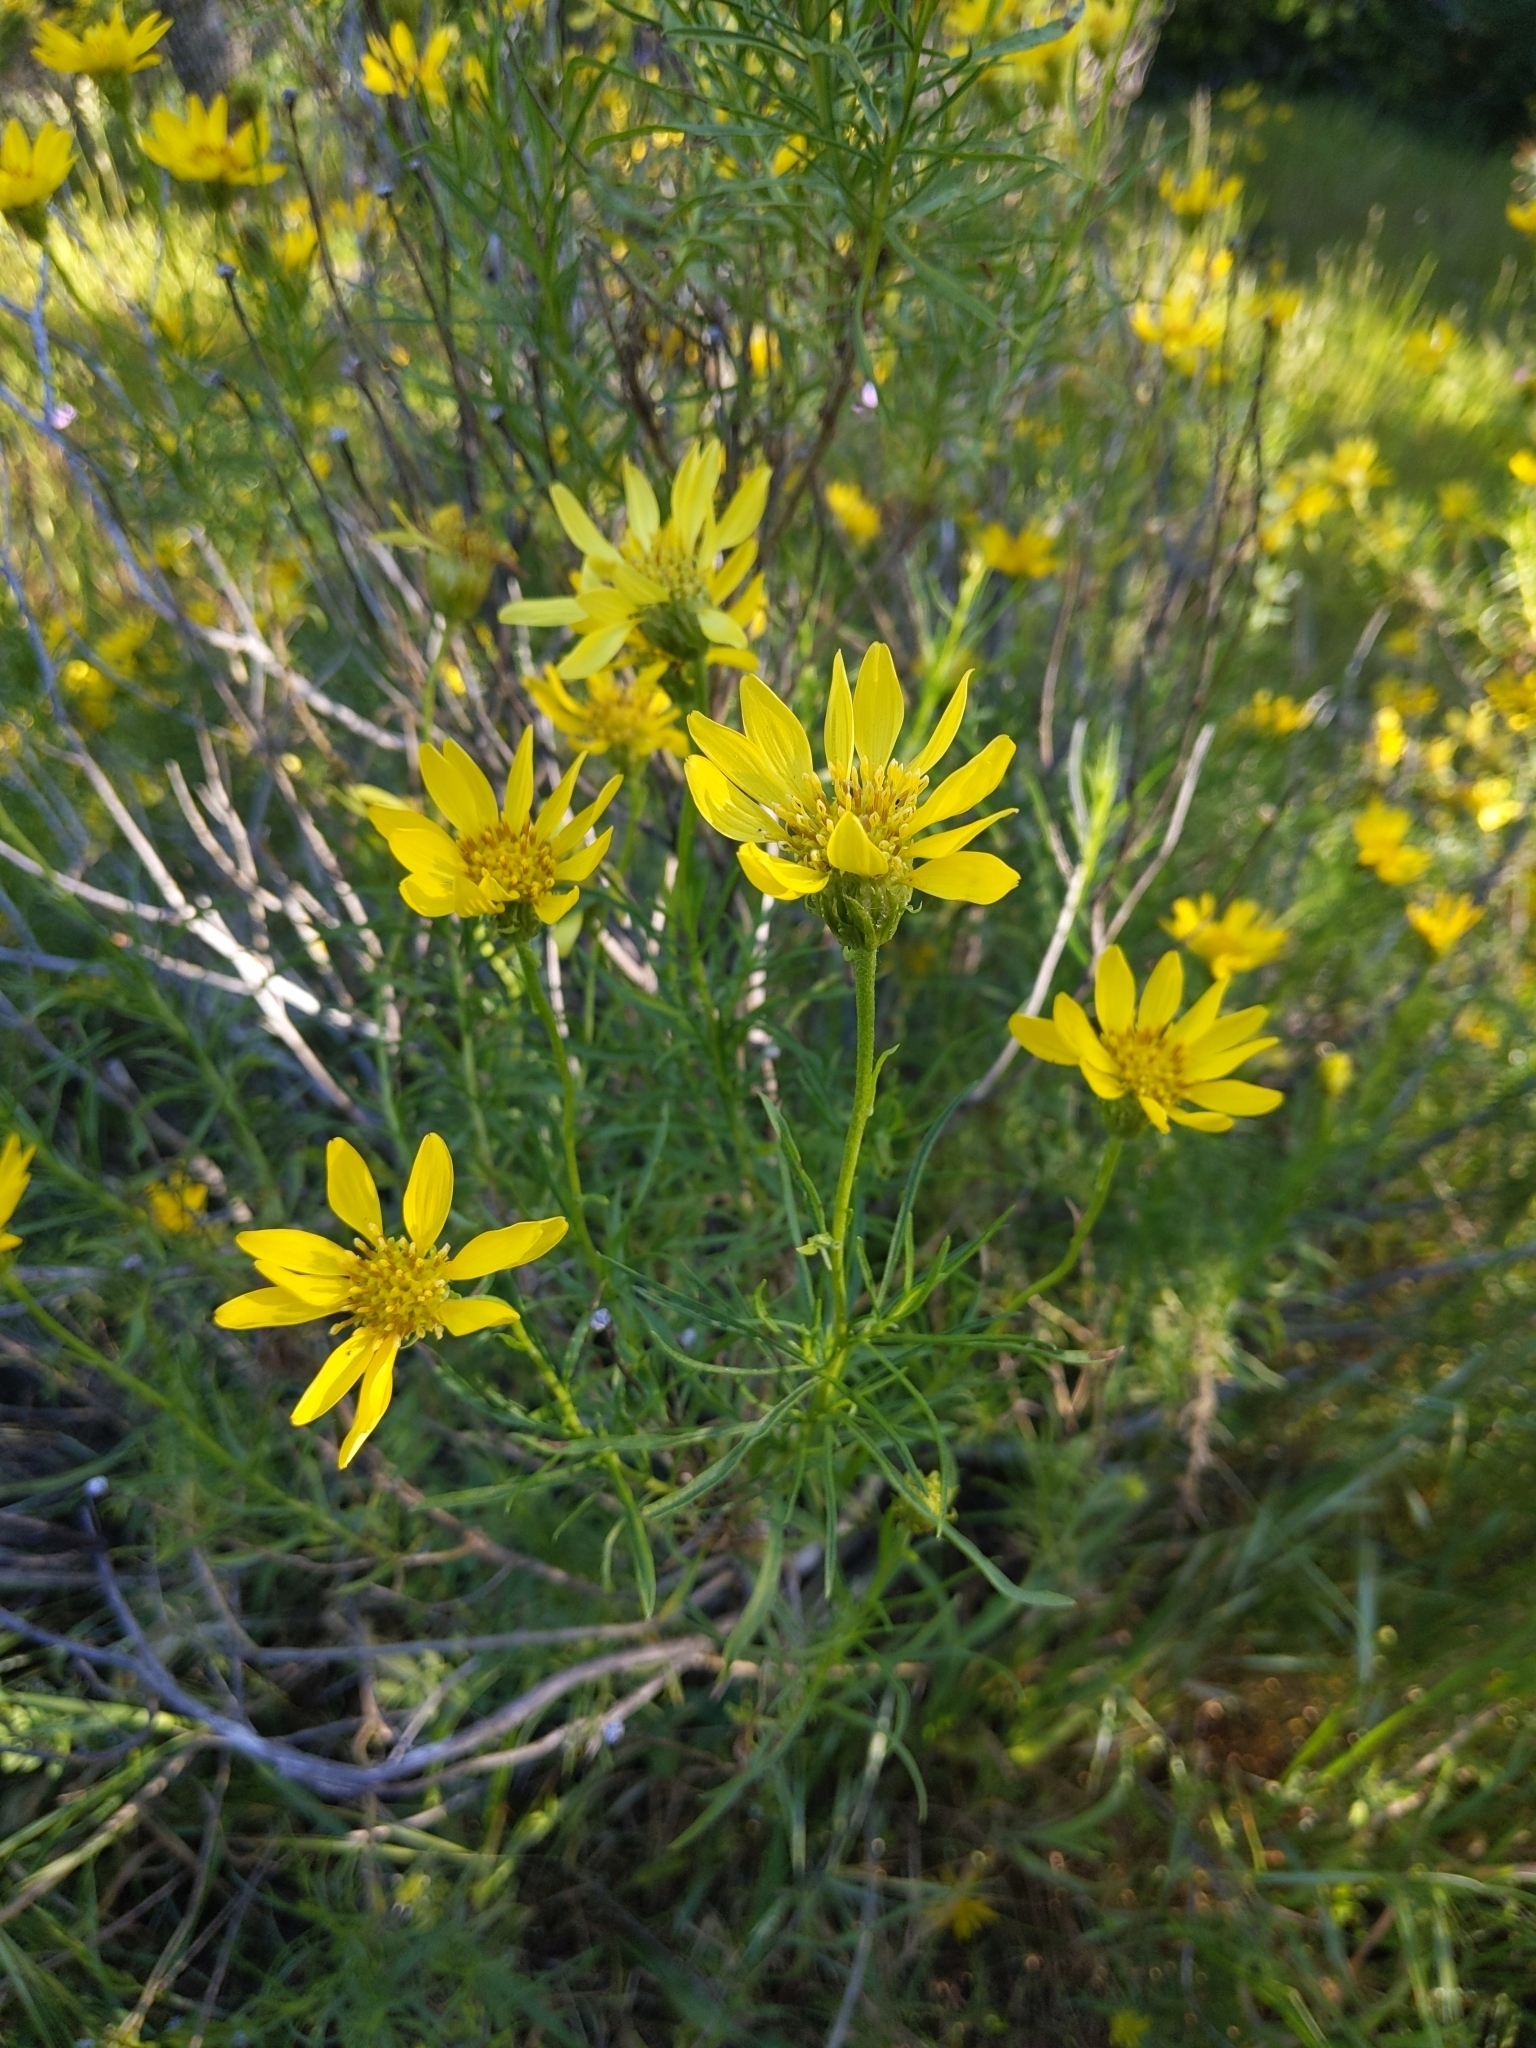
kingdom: Plantae
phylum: Tracheophyta
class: Magnoliopsida
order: Asterales
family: Asteraceae
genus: Ericameria
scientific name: Ericameria linearifolia
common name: Interior goldenbush
